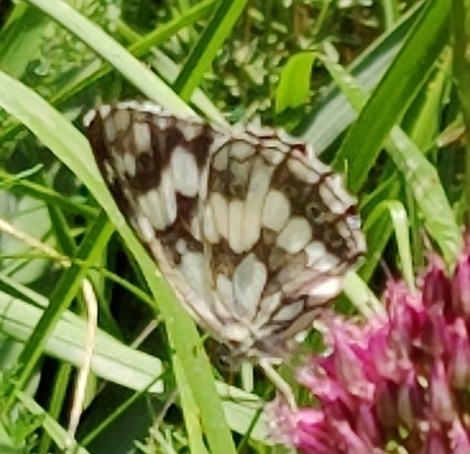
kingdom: Animalia
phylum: Arthropoda
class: Insecta
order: Lepidoptera
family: Nymphalidae
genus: Melanargia
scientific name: Melanargia lachesis
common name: Iberian marbled white
